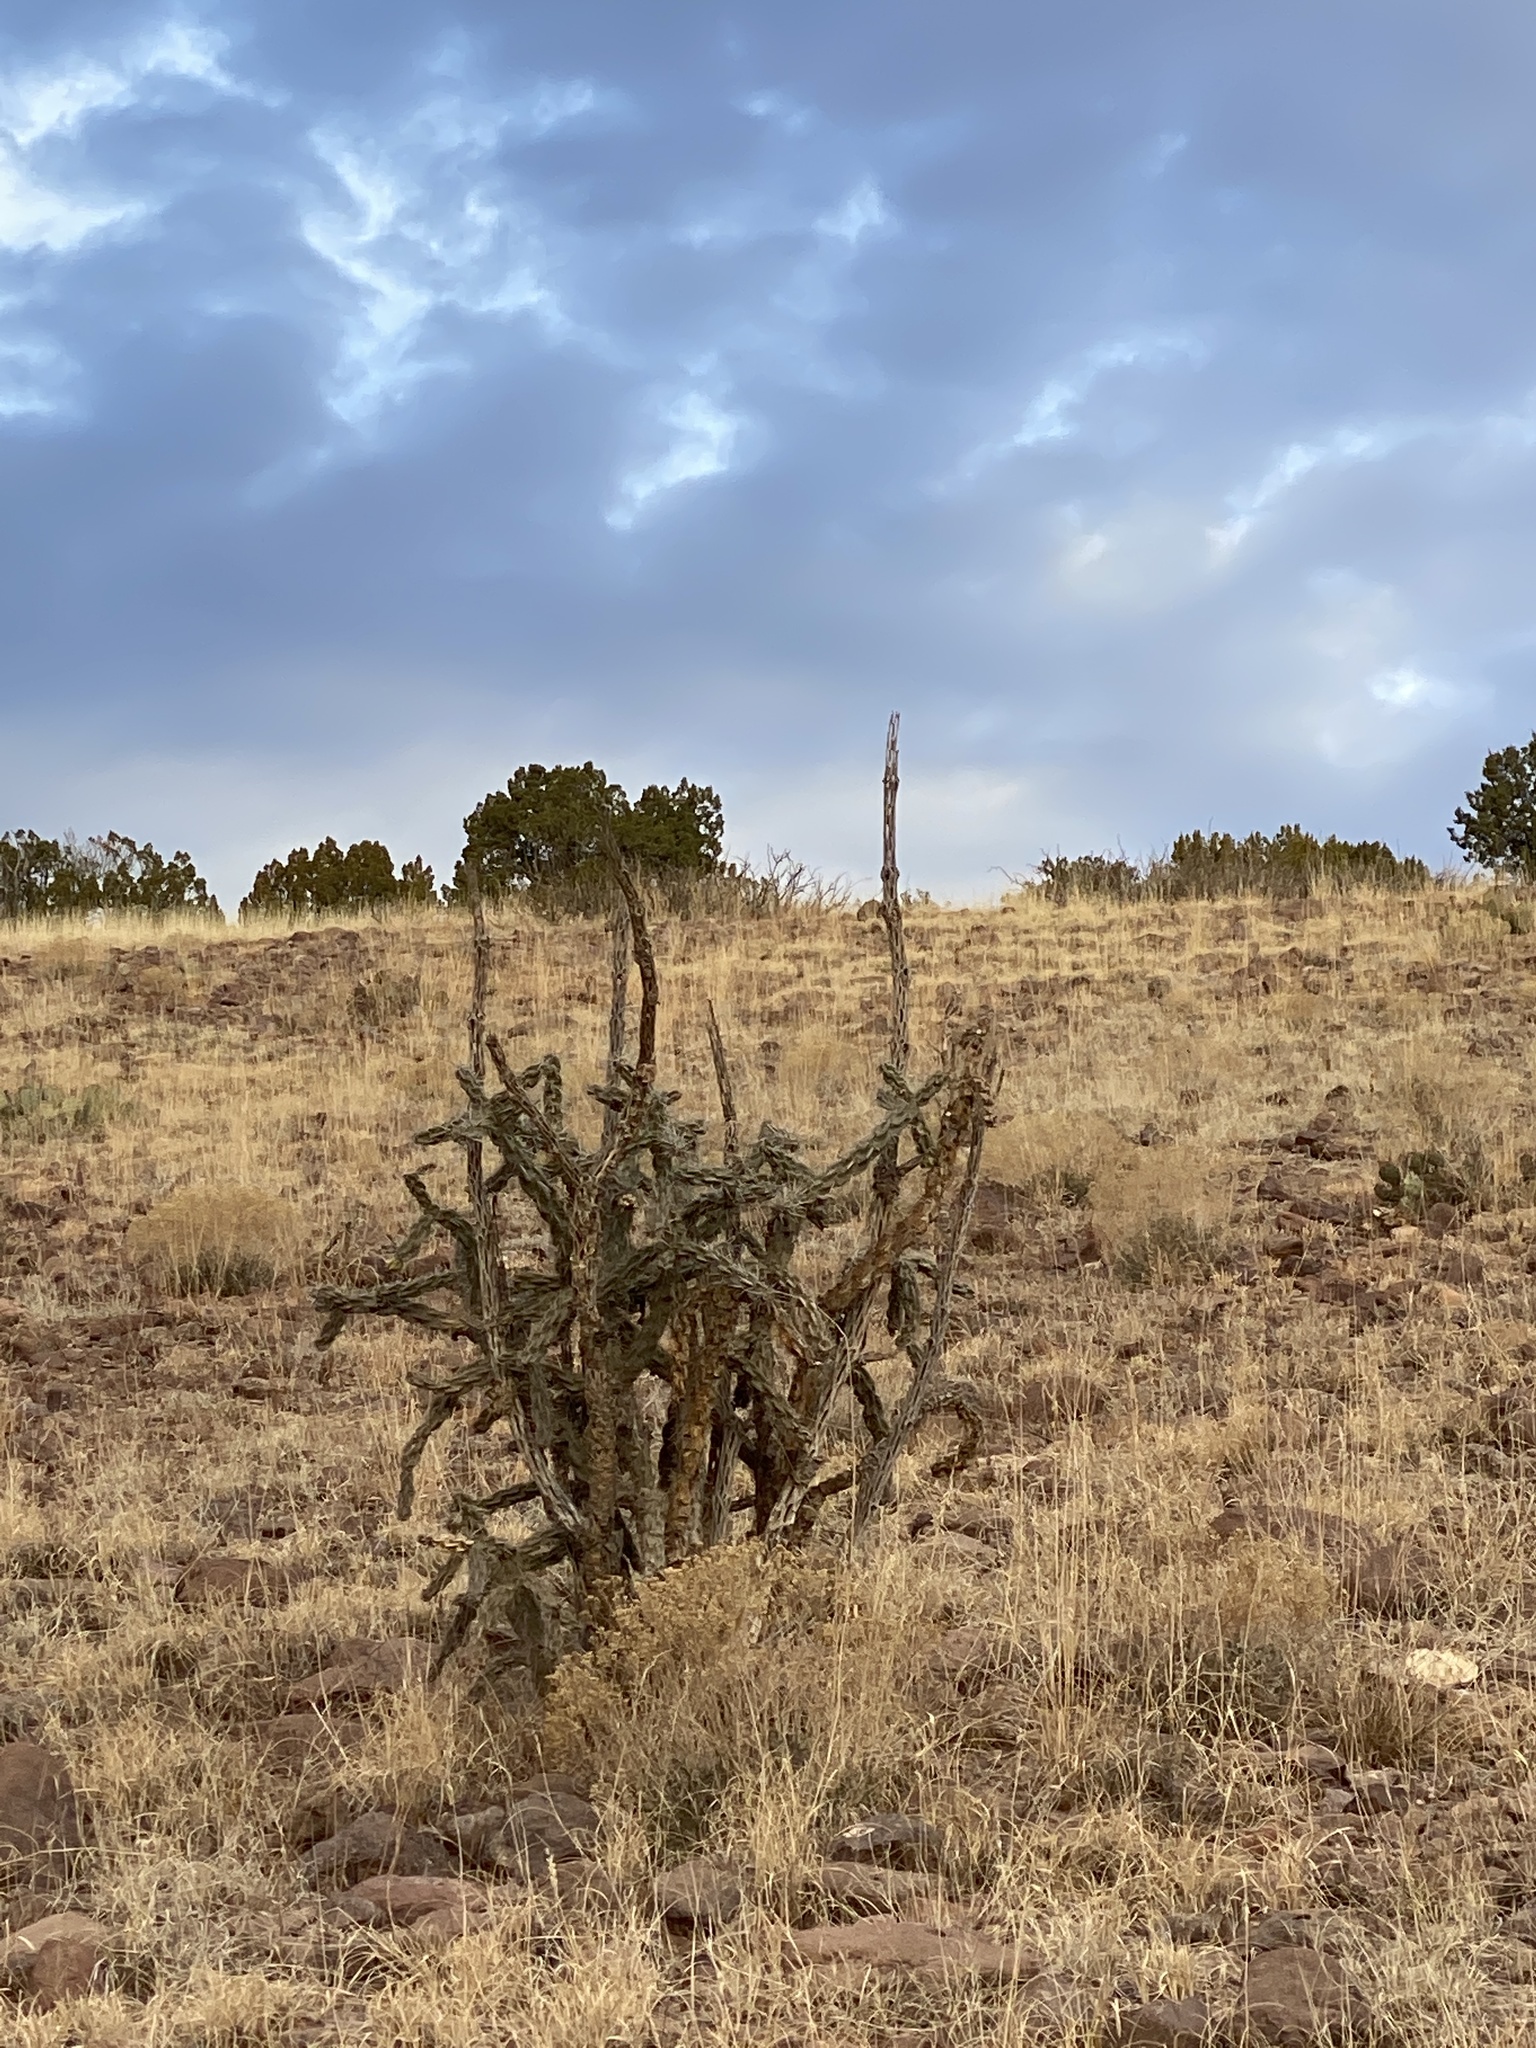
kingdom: Plantae
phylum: Tracheophyta
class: Magnoliopsida
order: Caryophyllales
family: Cactaceae
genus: Cylindropuntia
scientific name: Cylindropuntia imbricata
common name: Candelabrum cactus
